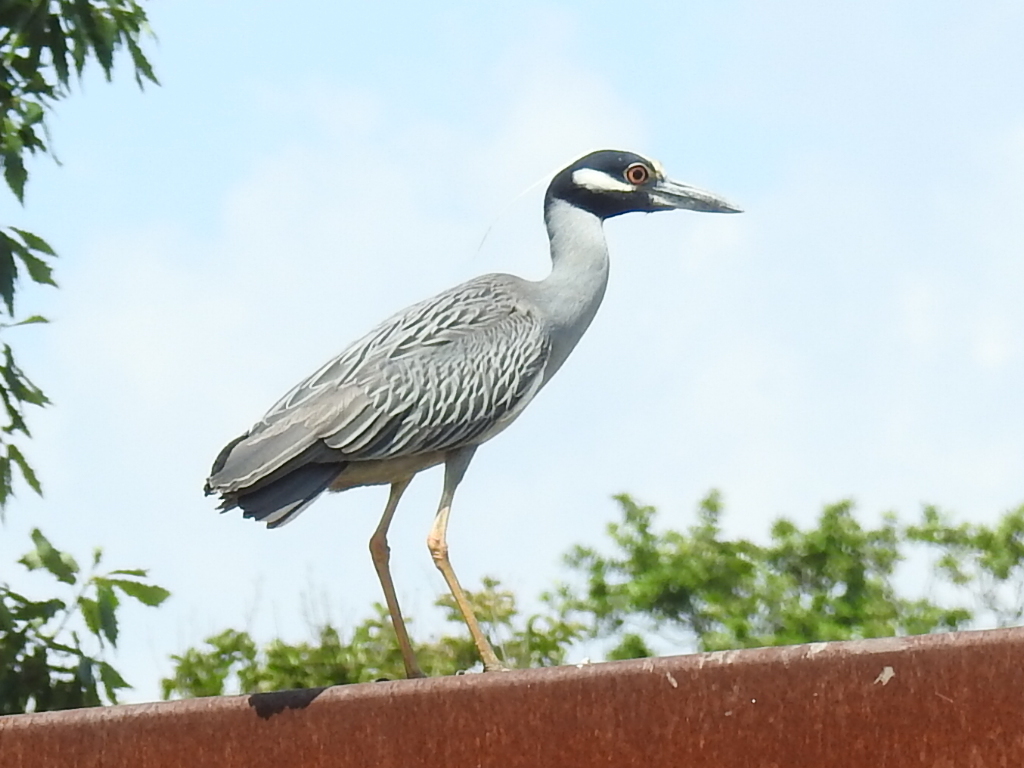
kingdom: Animalia
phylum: Chordata
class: Aves
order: Pelecaniformes
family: Ardeidae
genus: Nyctanassa
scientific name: Nyctanassa violacea
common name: Yellow-crowned night heron
